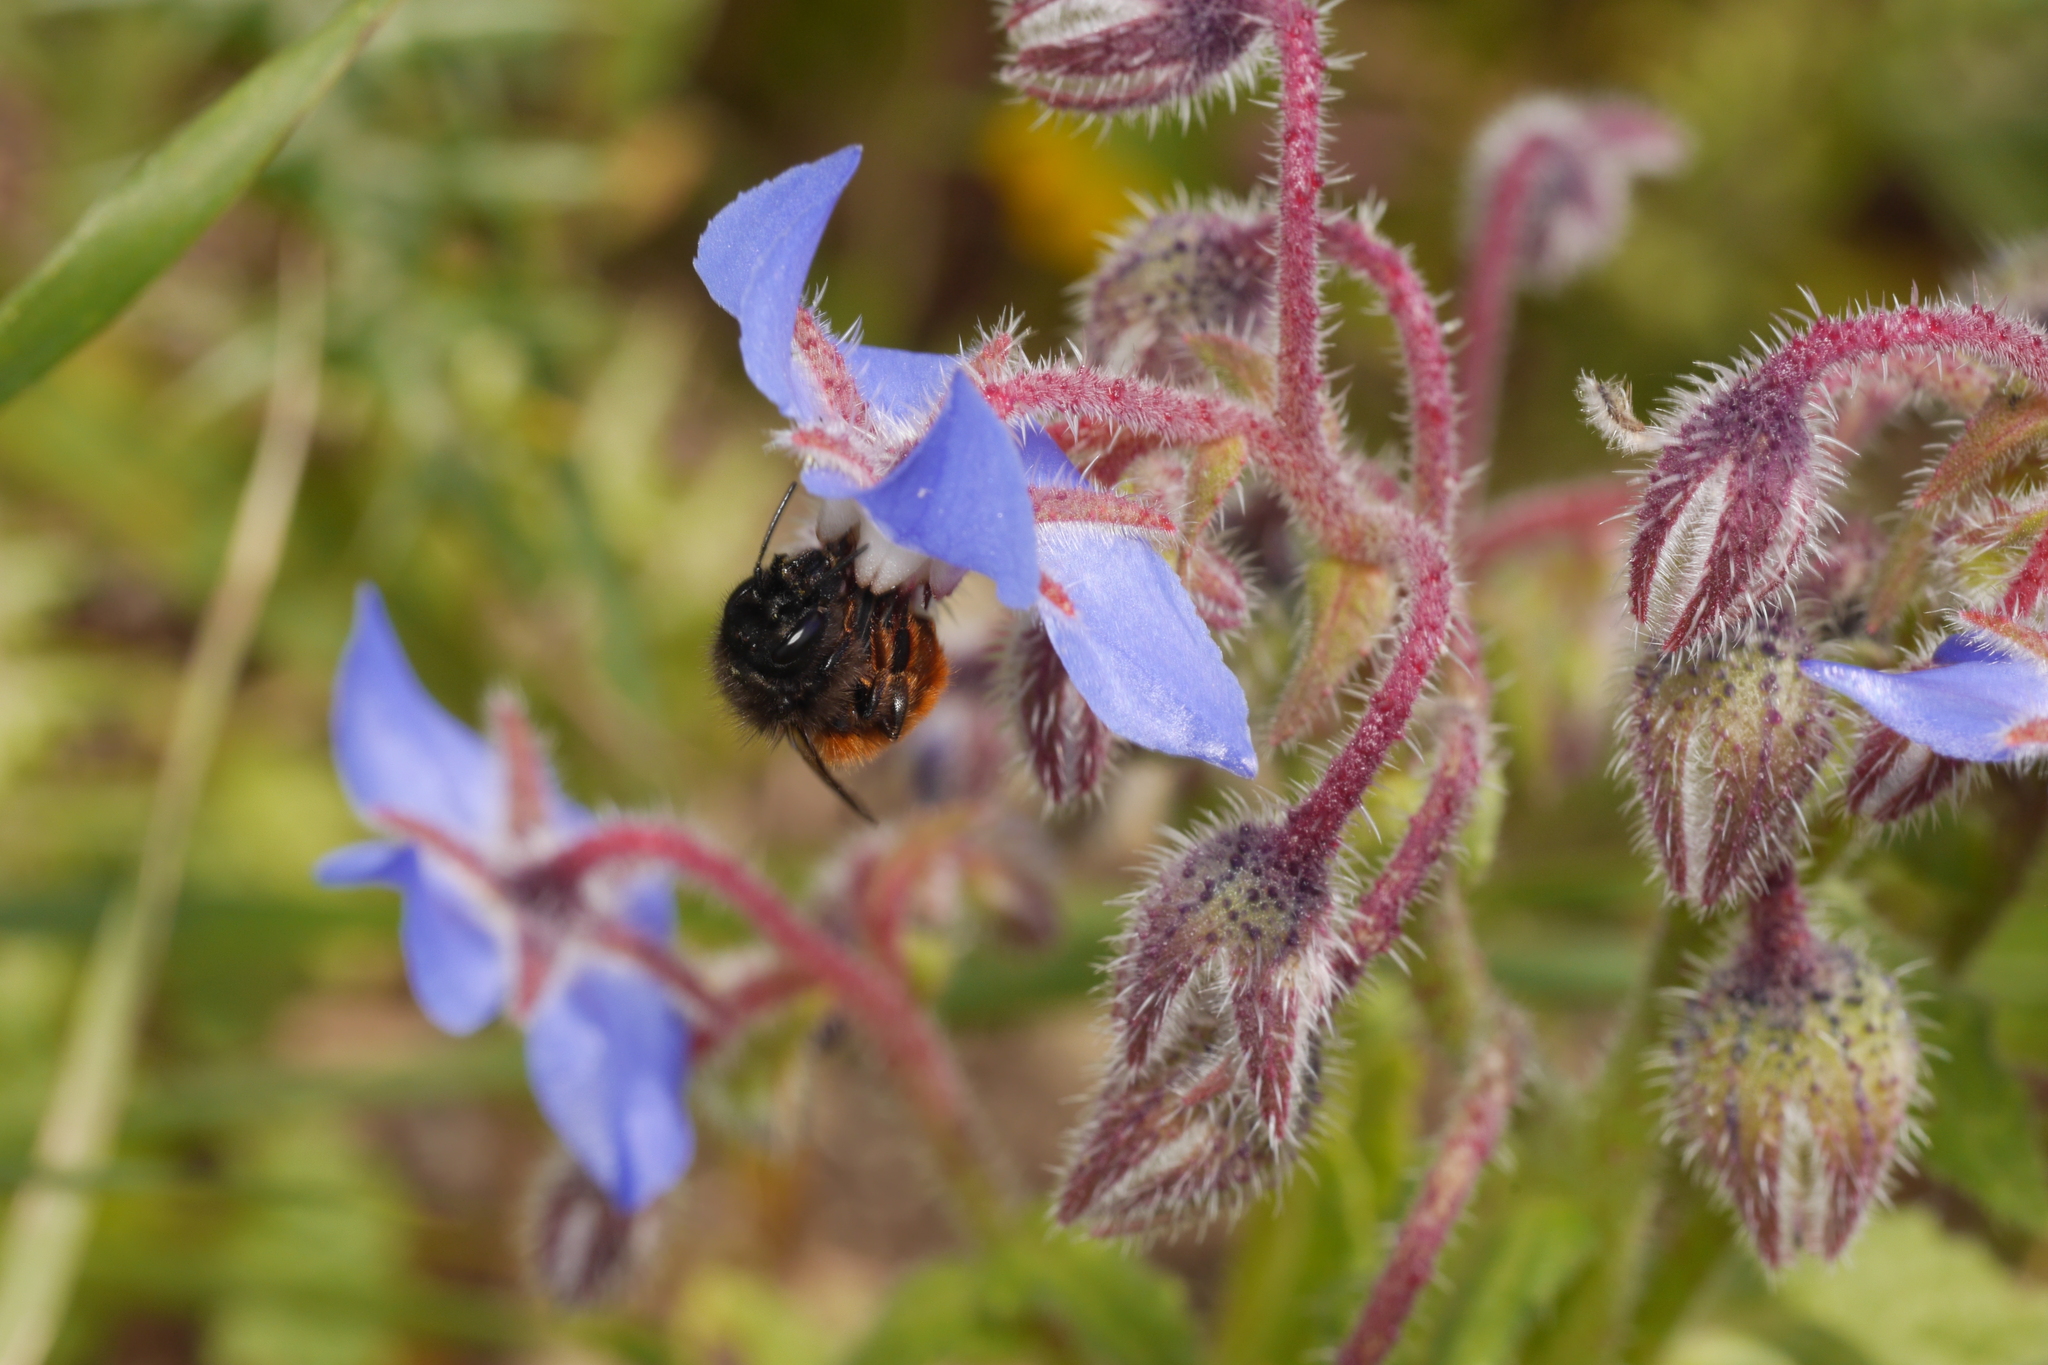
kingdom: Animalia
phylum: Arthropoda
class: Insecta
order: Hymenoptera
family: Megachilidae
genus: Osmia
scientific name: Osmia cornuta
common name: Mason bee
